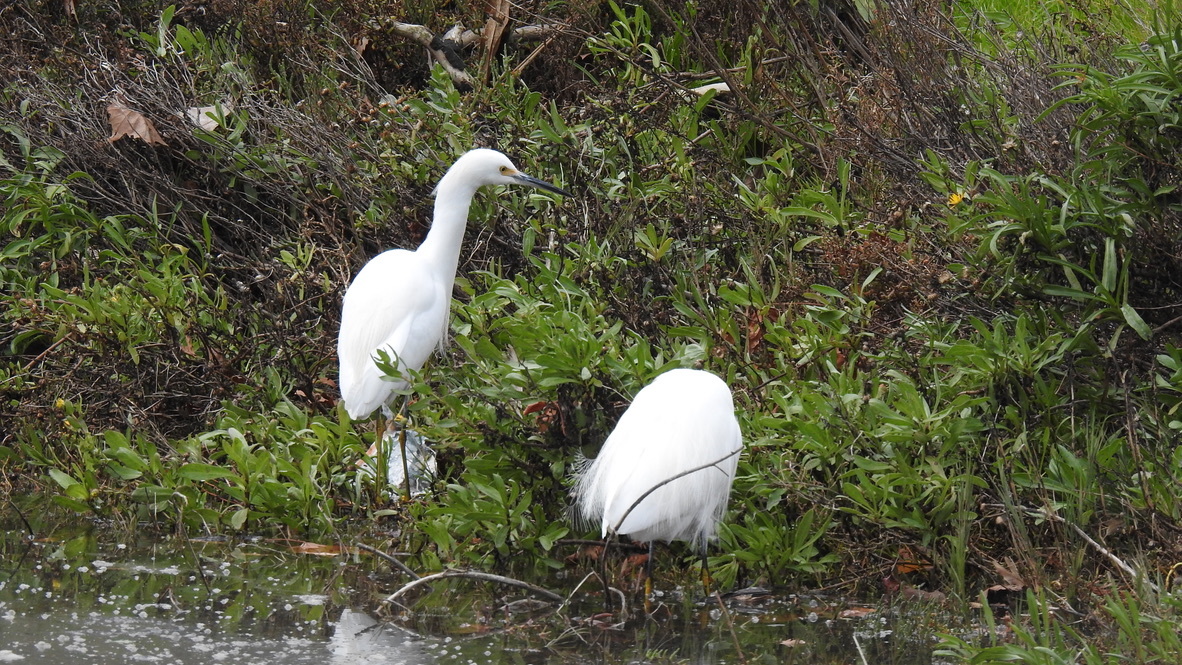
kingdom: Animalia
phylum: Chordata
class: Aves
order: Pelecaniformes
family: Ardeidae
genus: Ardea
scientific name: Ardea alba
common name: Great egret
